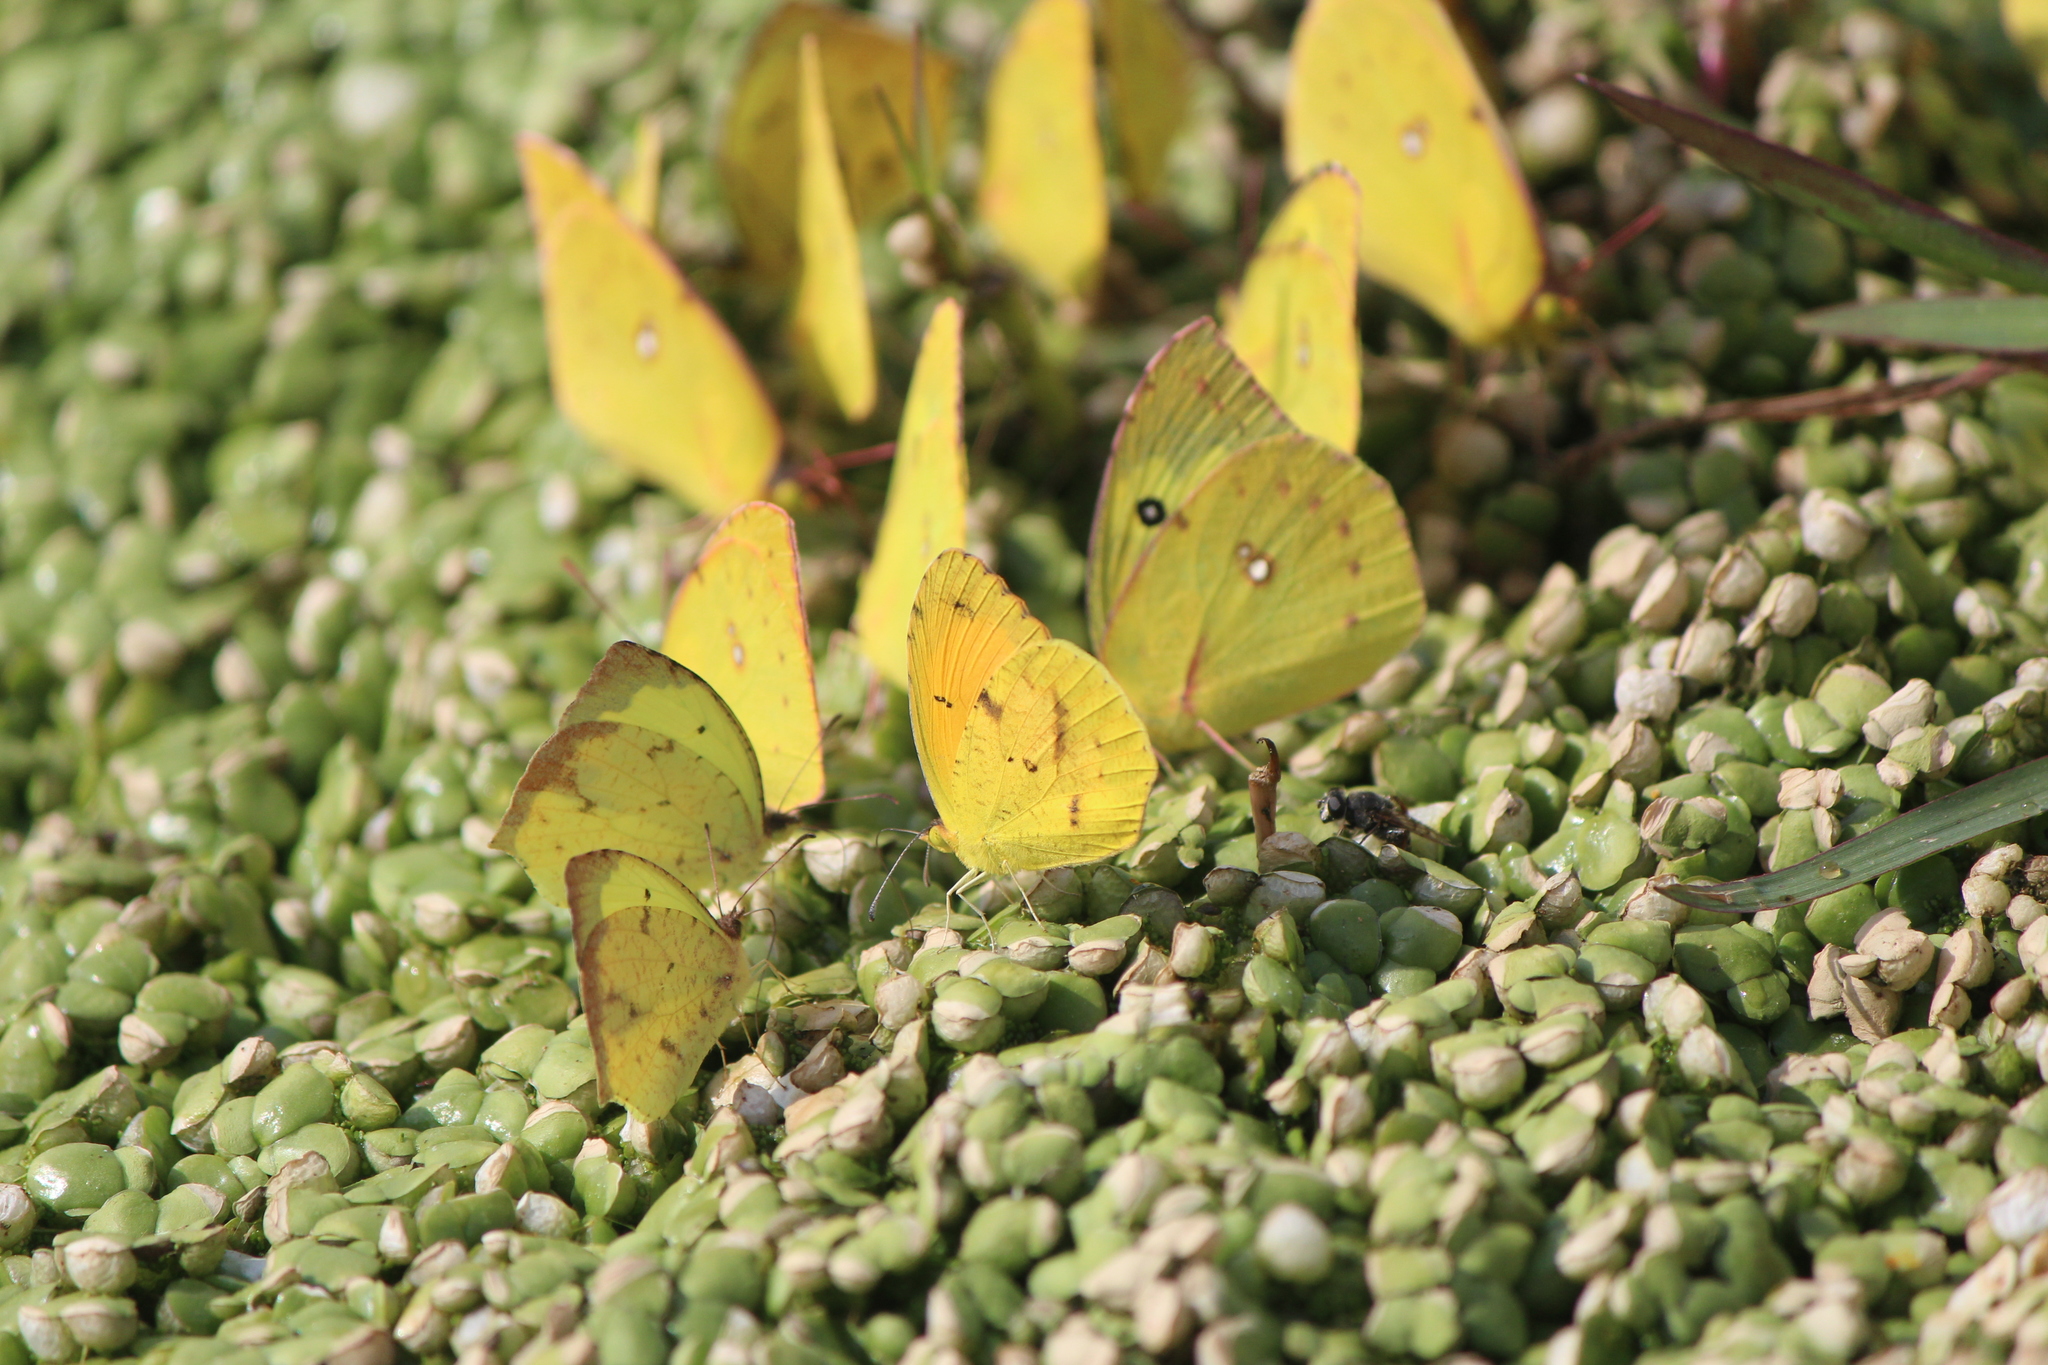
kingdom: Animalia
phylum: Arthropoda
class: Insecta
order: Lepidoptera
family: Pieridae
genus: Abaeis
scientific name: Abaeis nicippe
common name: Sleepy orange
